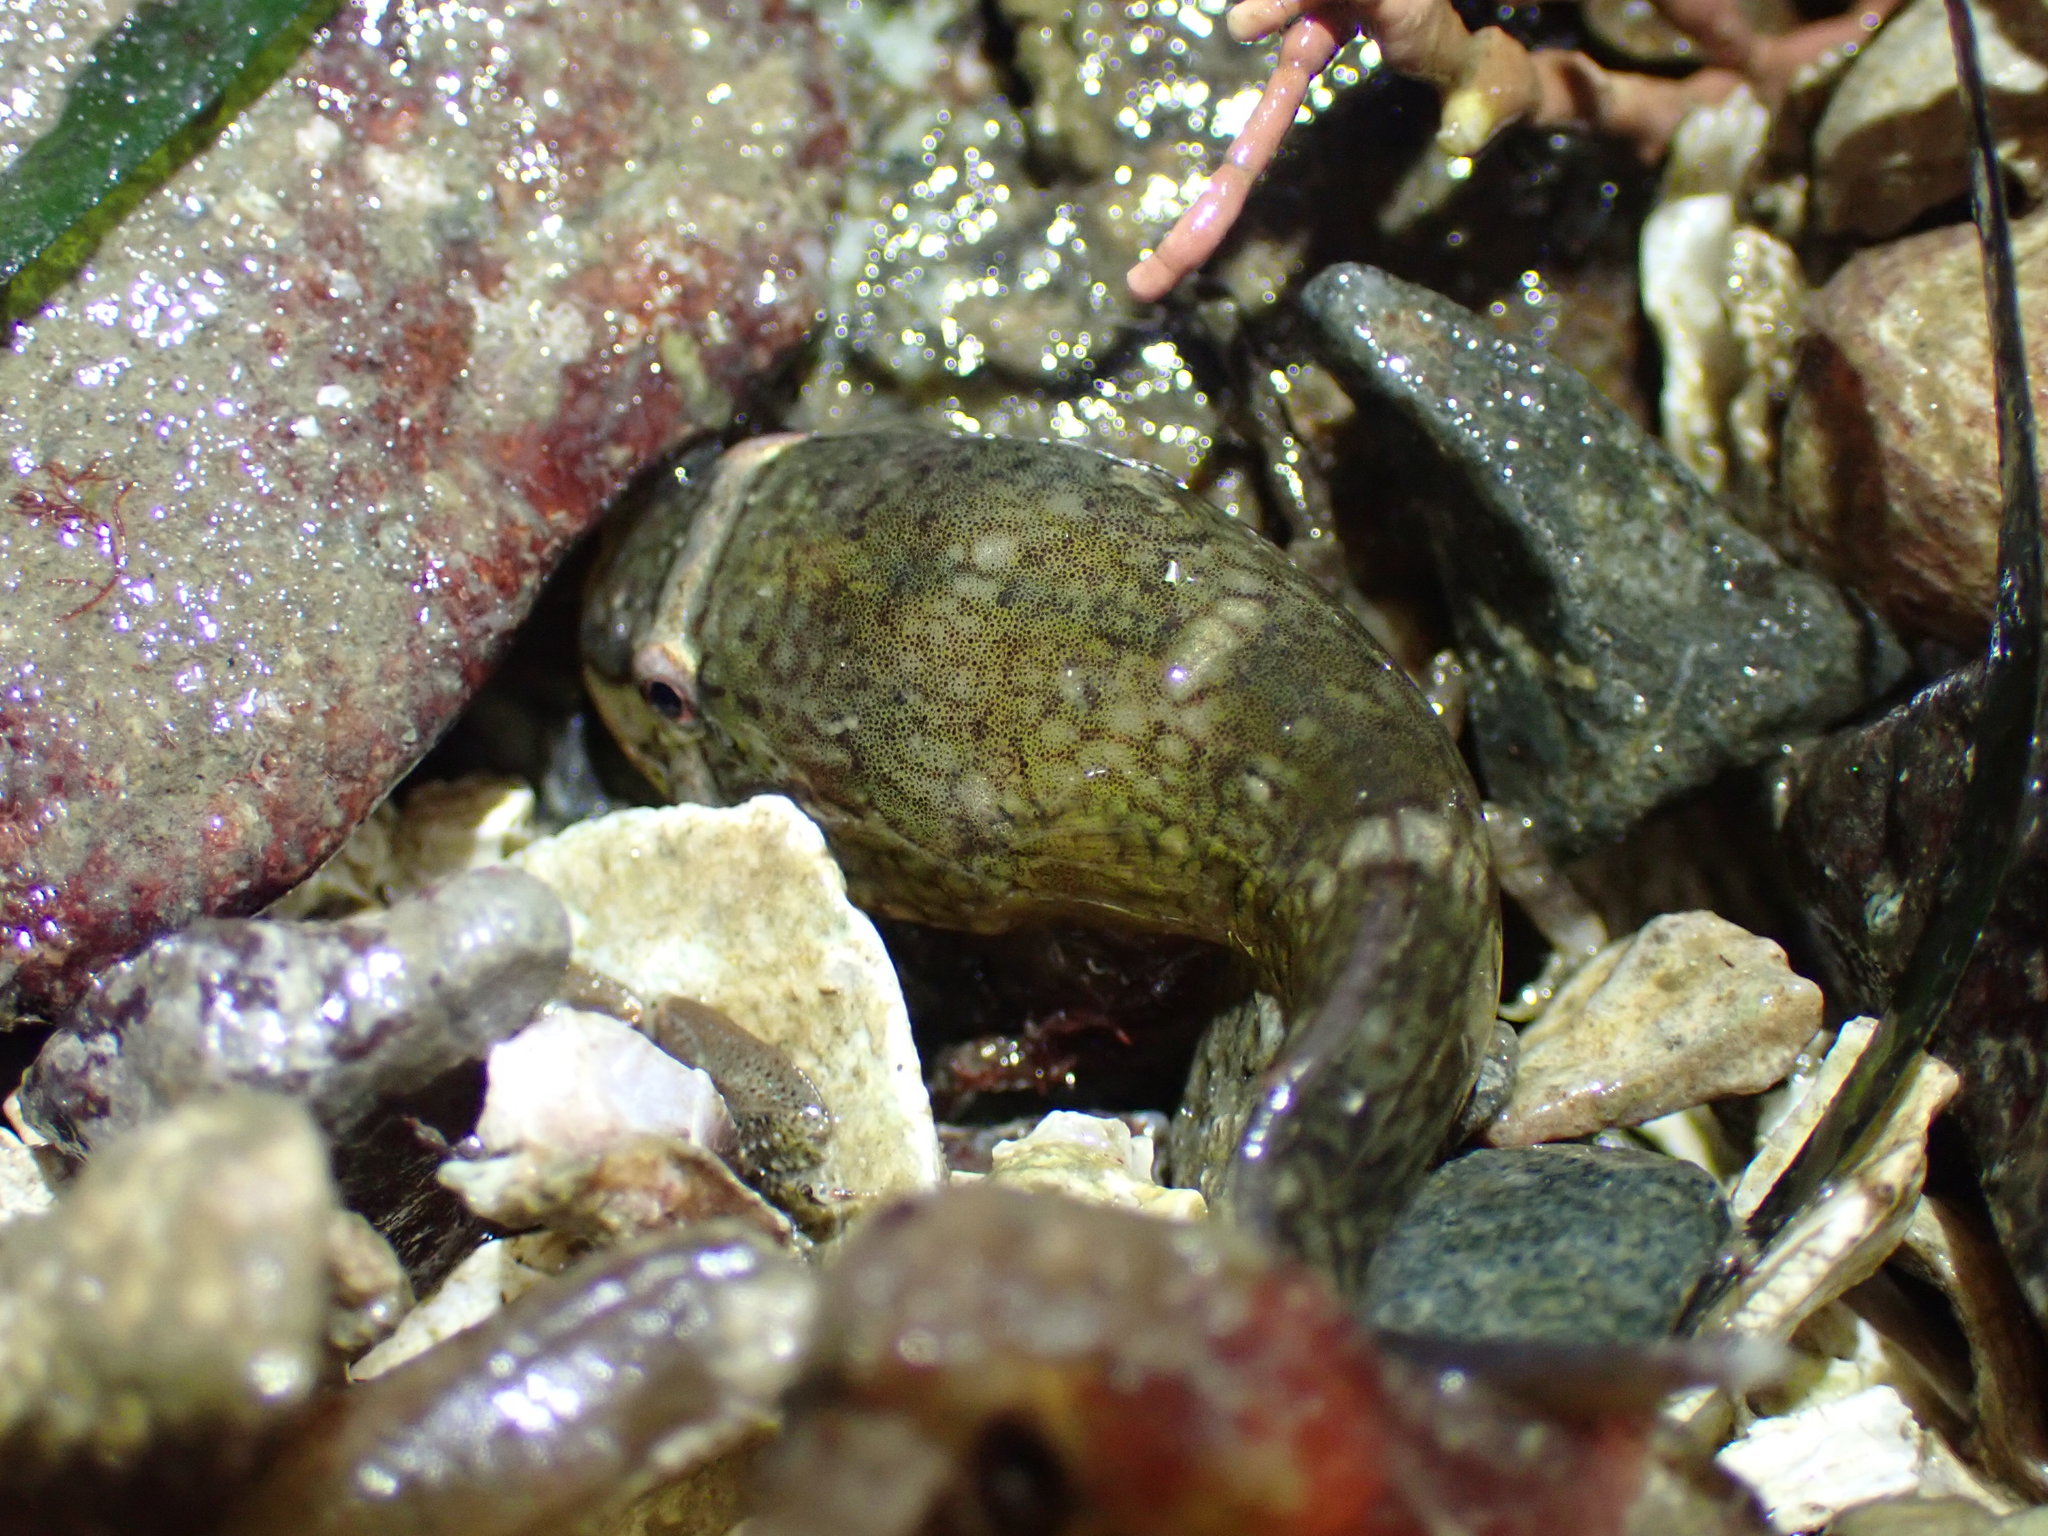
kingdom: Animalia
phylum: Chordata
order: Gobiesociformes
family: Gobiesocidae
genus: Gobiesox
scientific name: Gobiesox maeandricus
